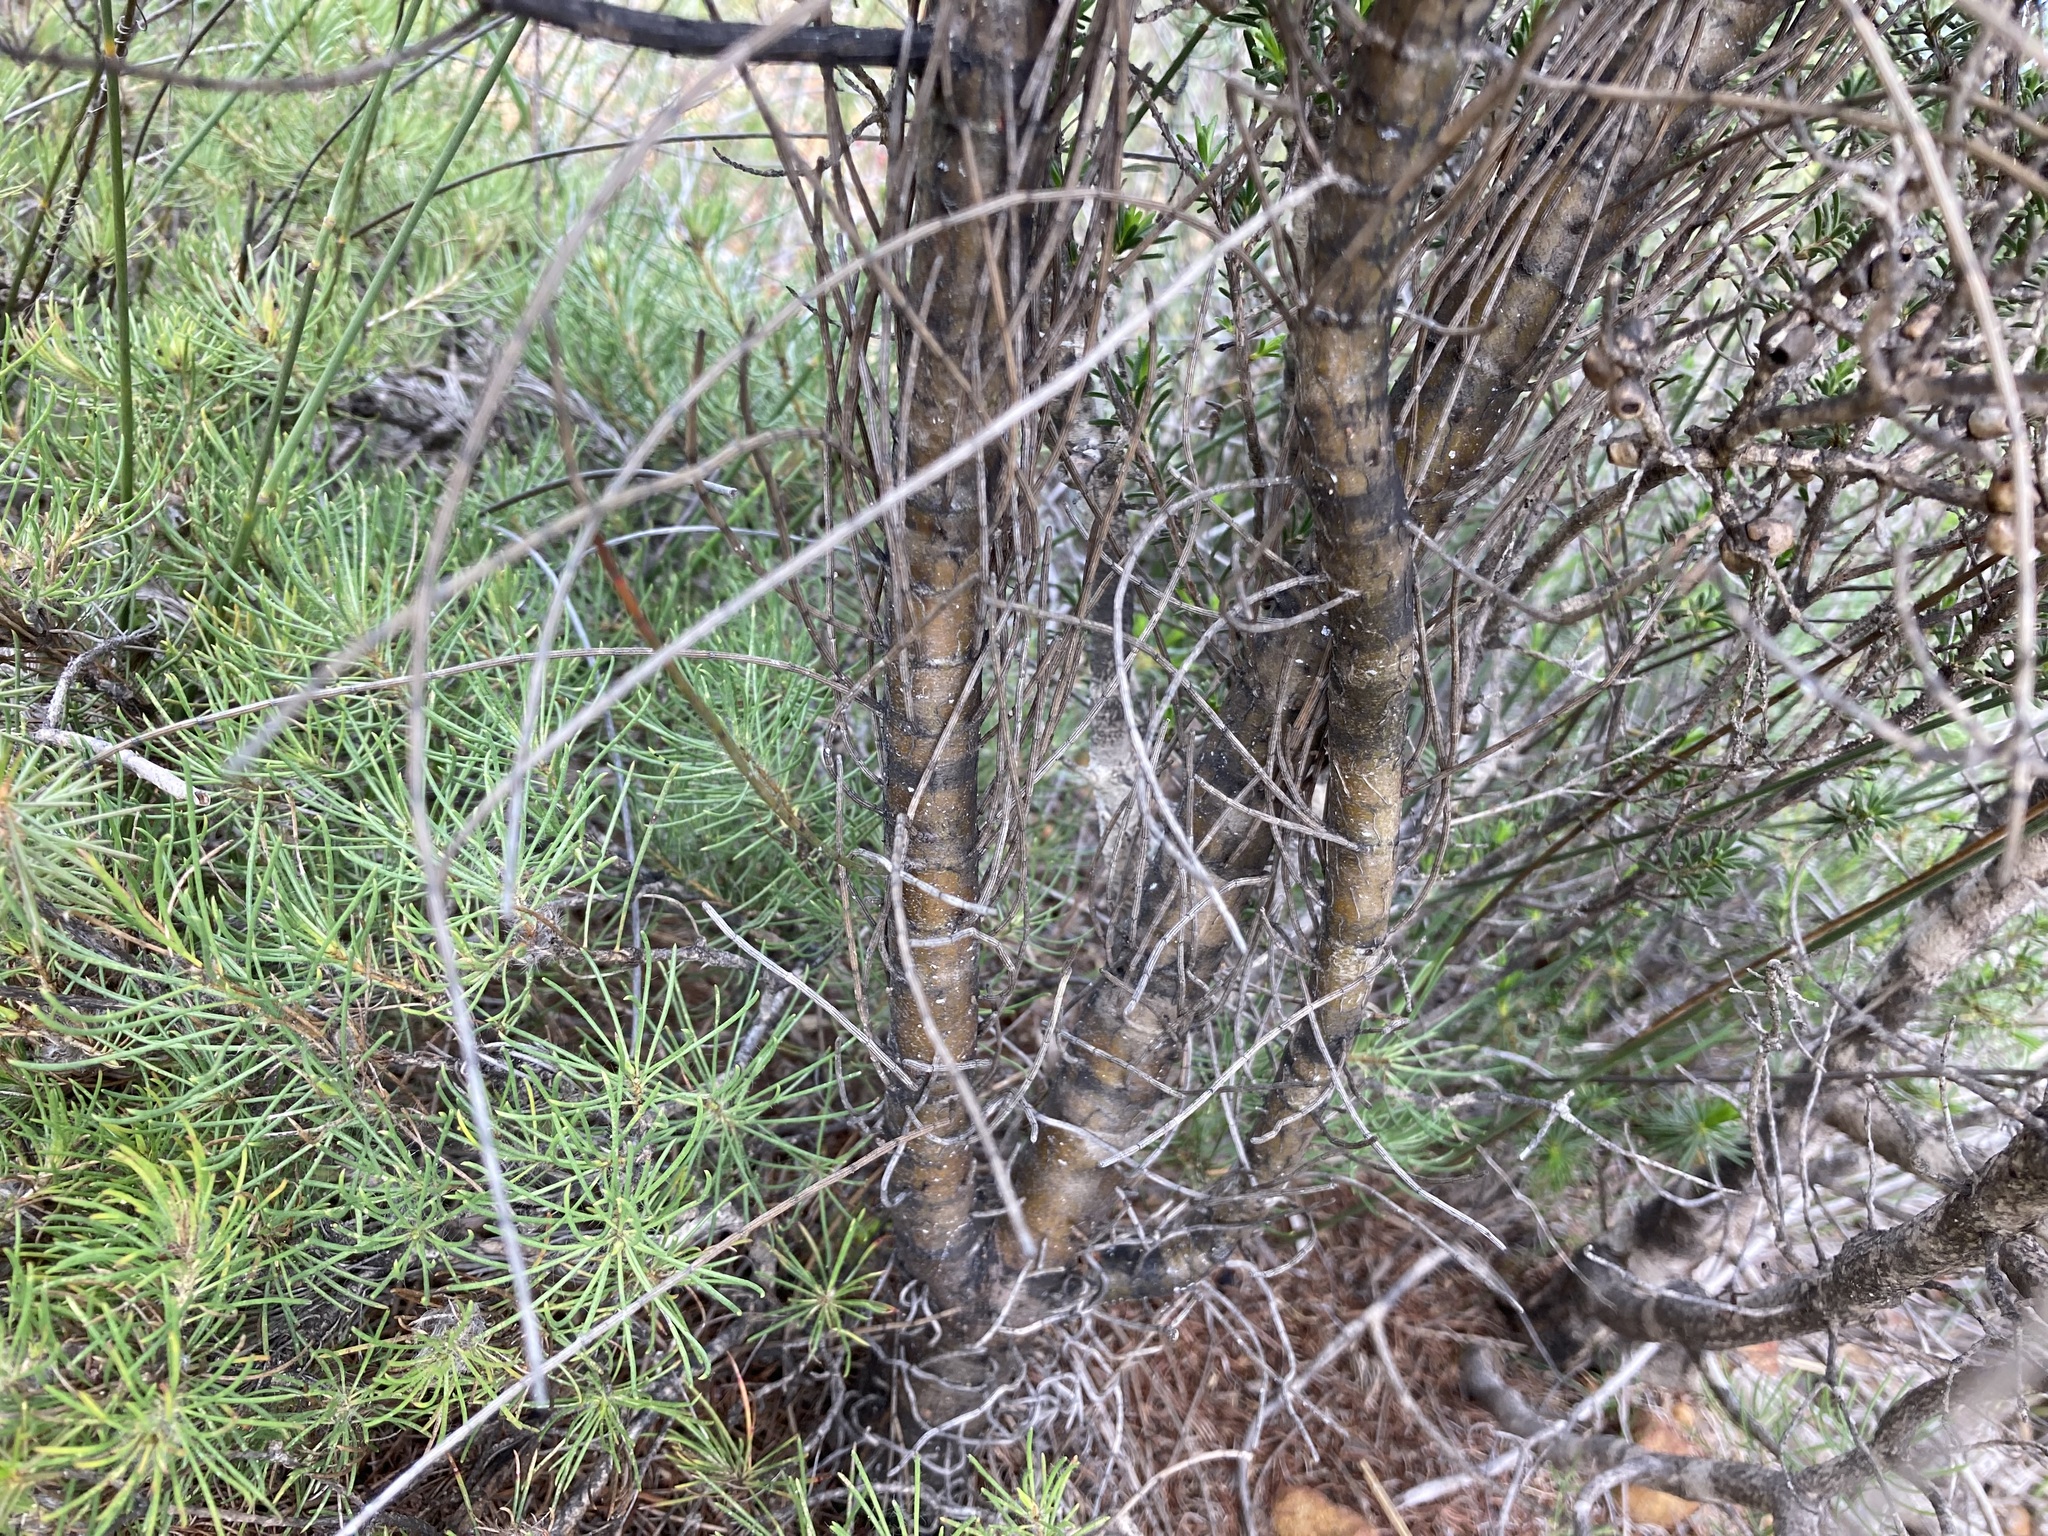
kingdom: Plantae
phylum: Tracheophyta
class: Magnoliopsida
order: Fagales
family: Casuarinaceae
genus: Allocasuarina
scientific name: Allocasuarina campestris
